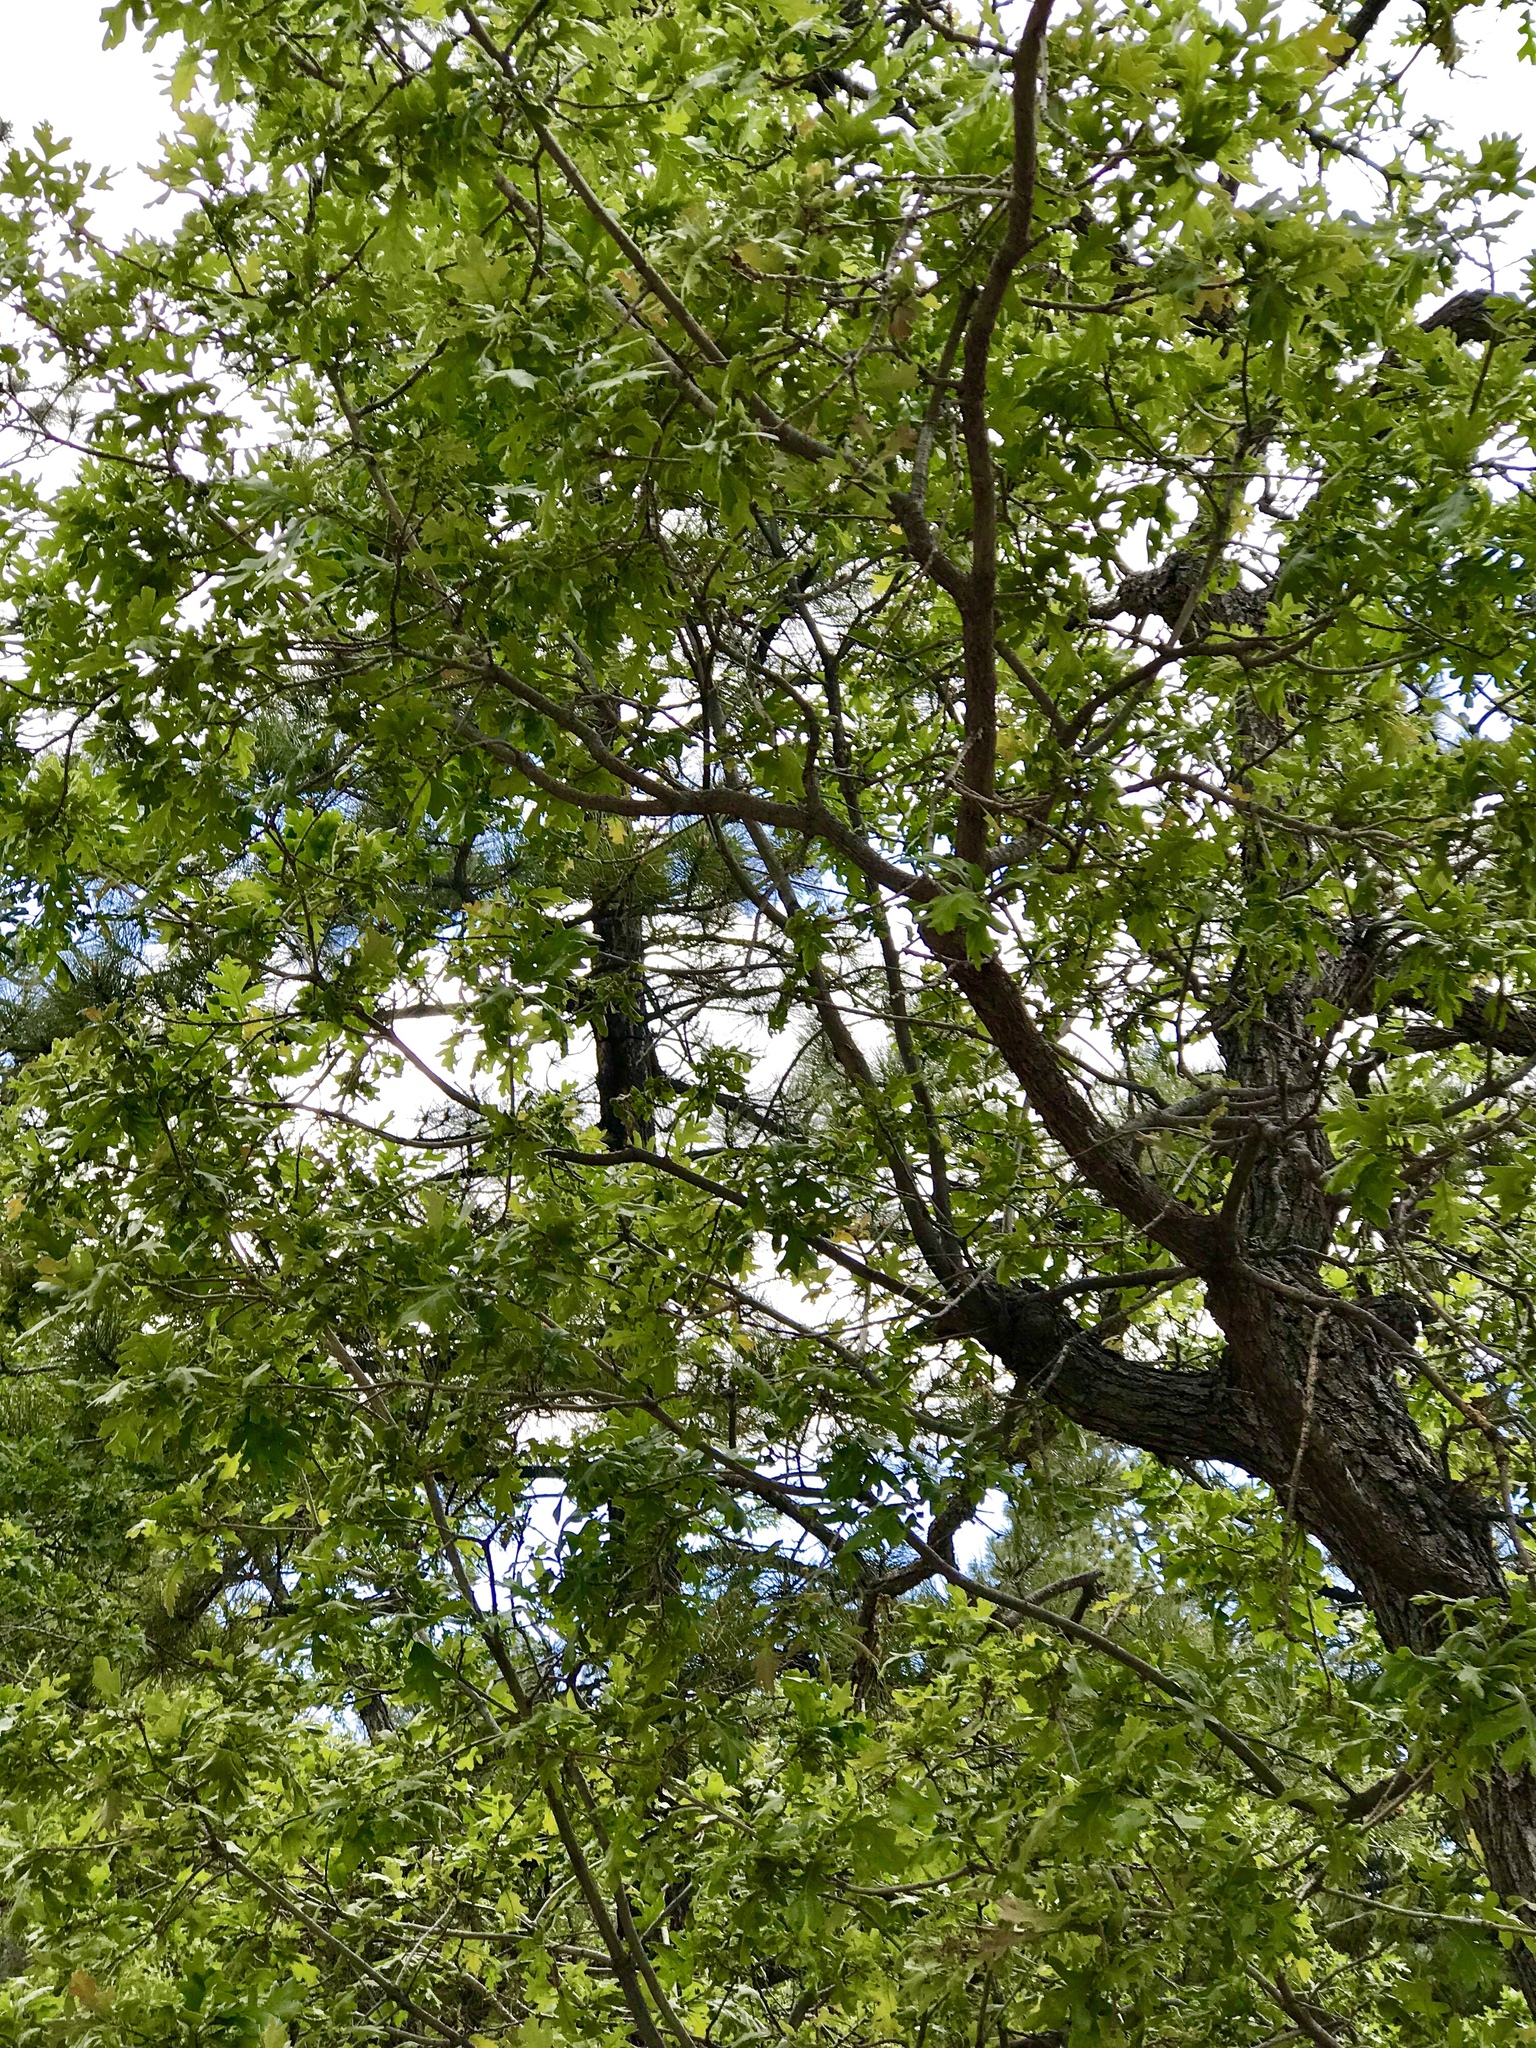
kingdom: Plantae
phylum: Tracheophyta
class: Magnoliopsida
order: Fagales
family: Fagaceae
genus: Quercus
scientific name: Quercus gambelii
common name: Gambel oak
